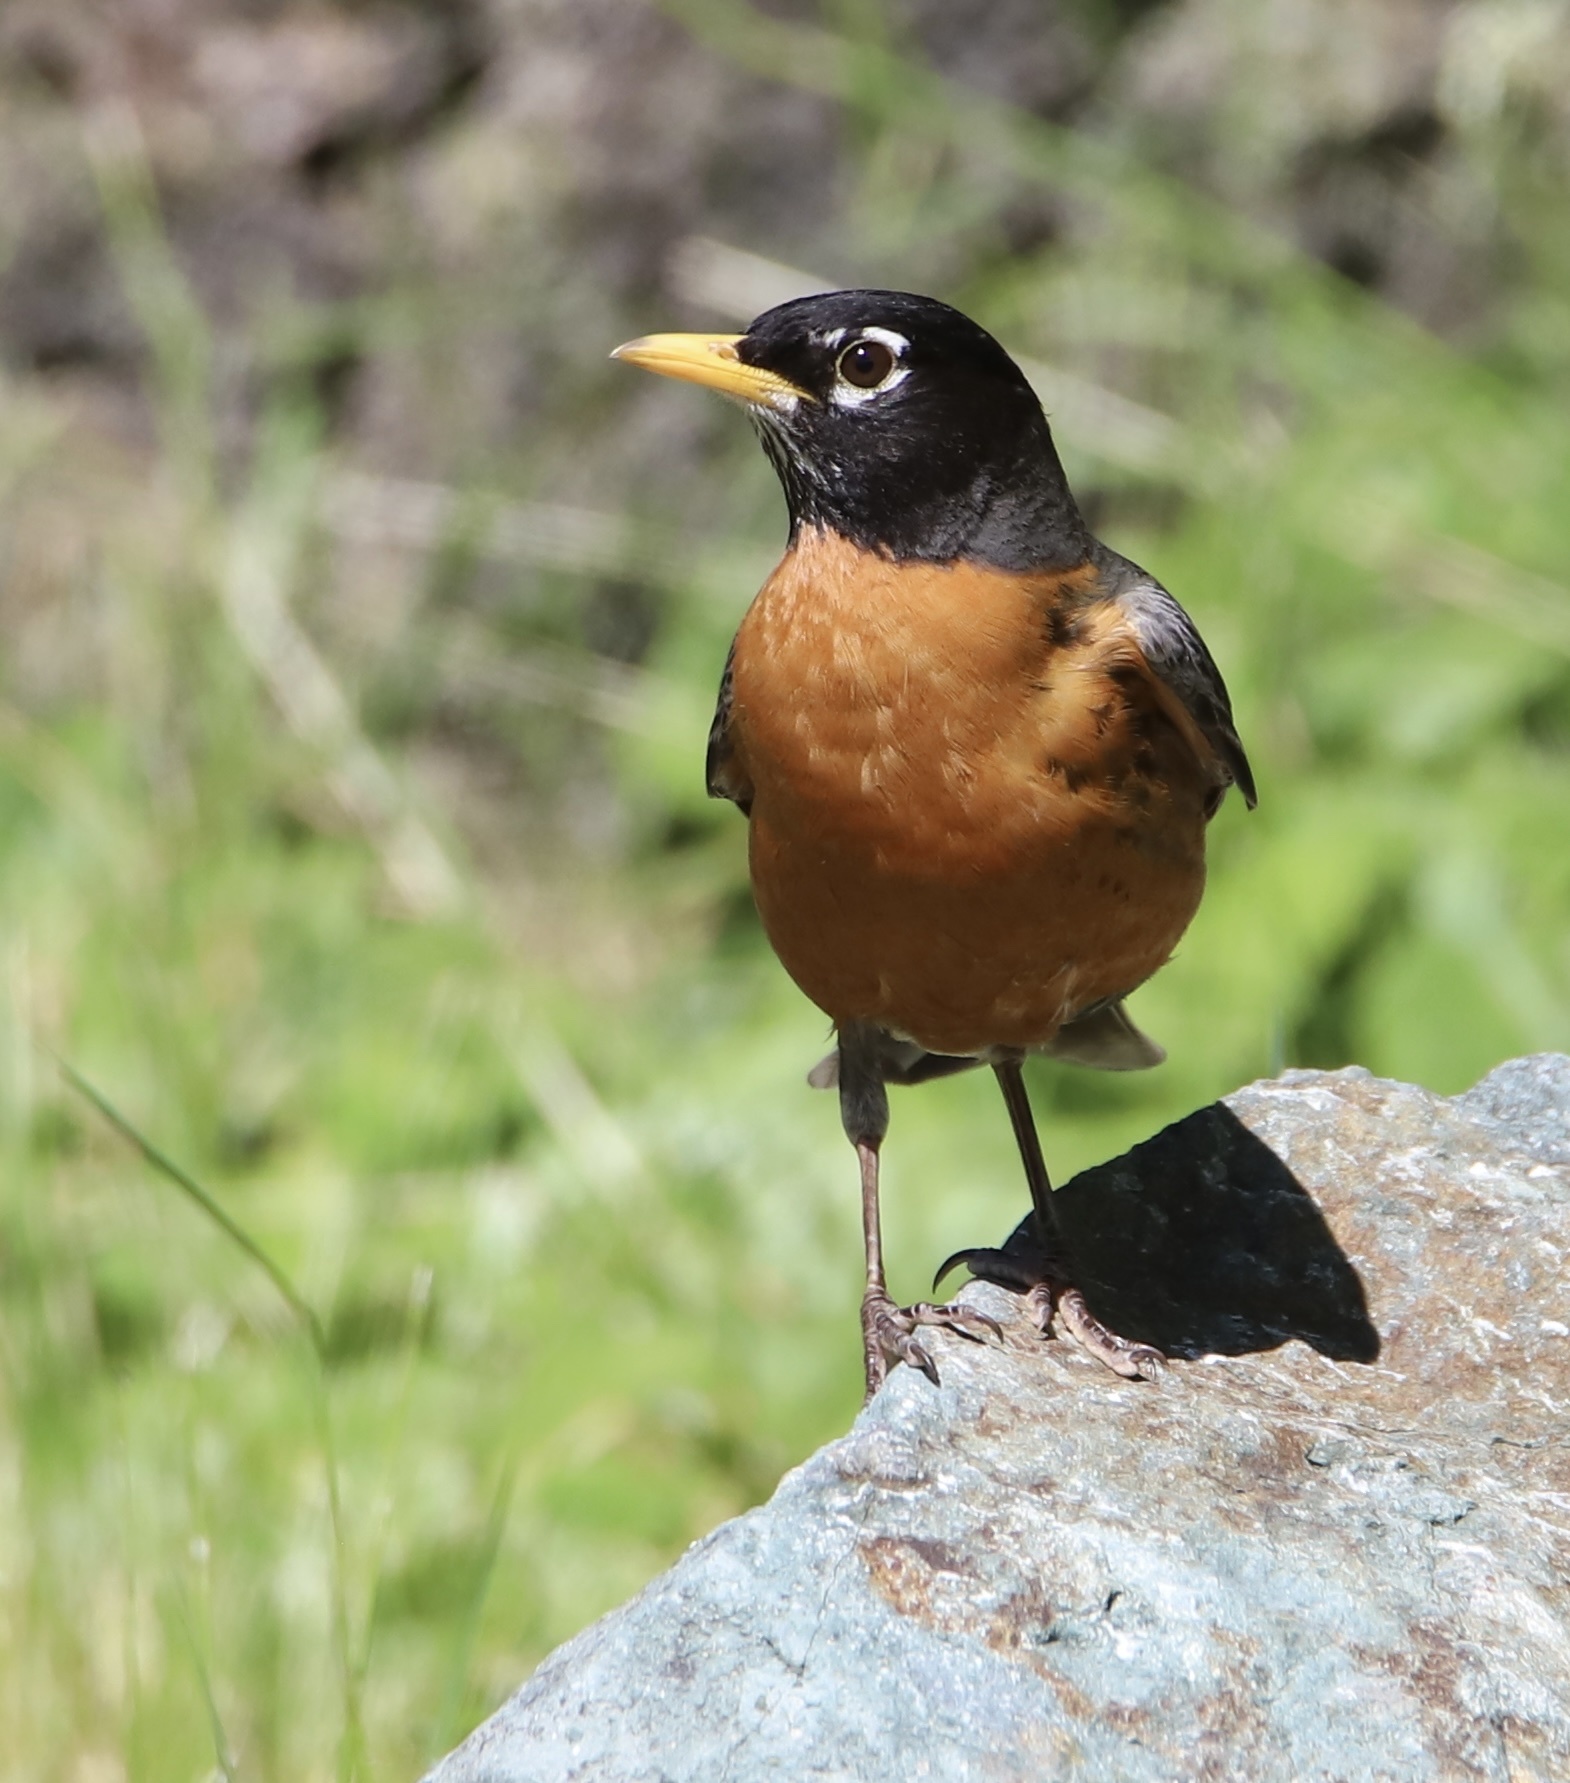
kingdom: Animalia
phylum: Chordata
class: Aves
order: Passeriformes
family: Turdidae
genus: Turdus
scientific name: Turdus migratorius
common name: American robin
